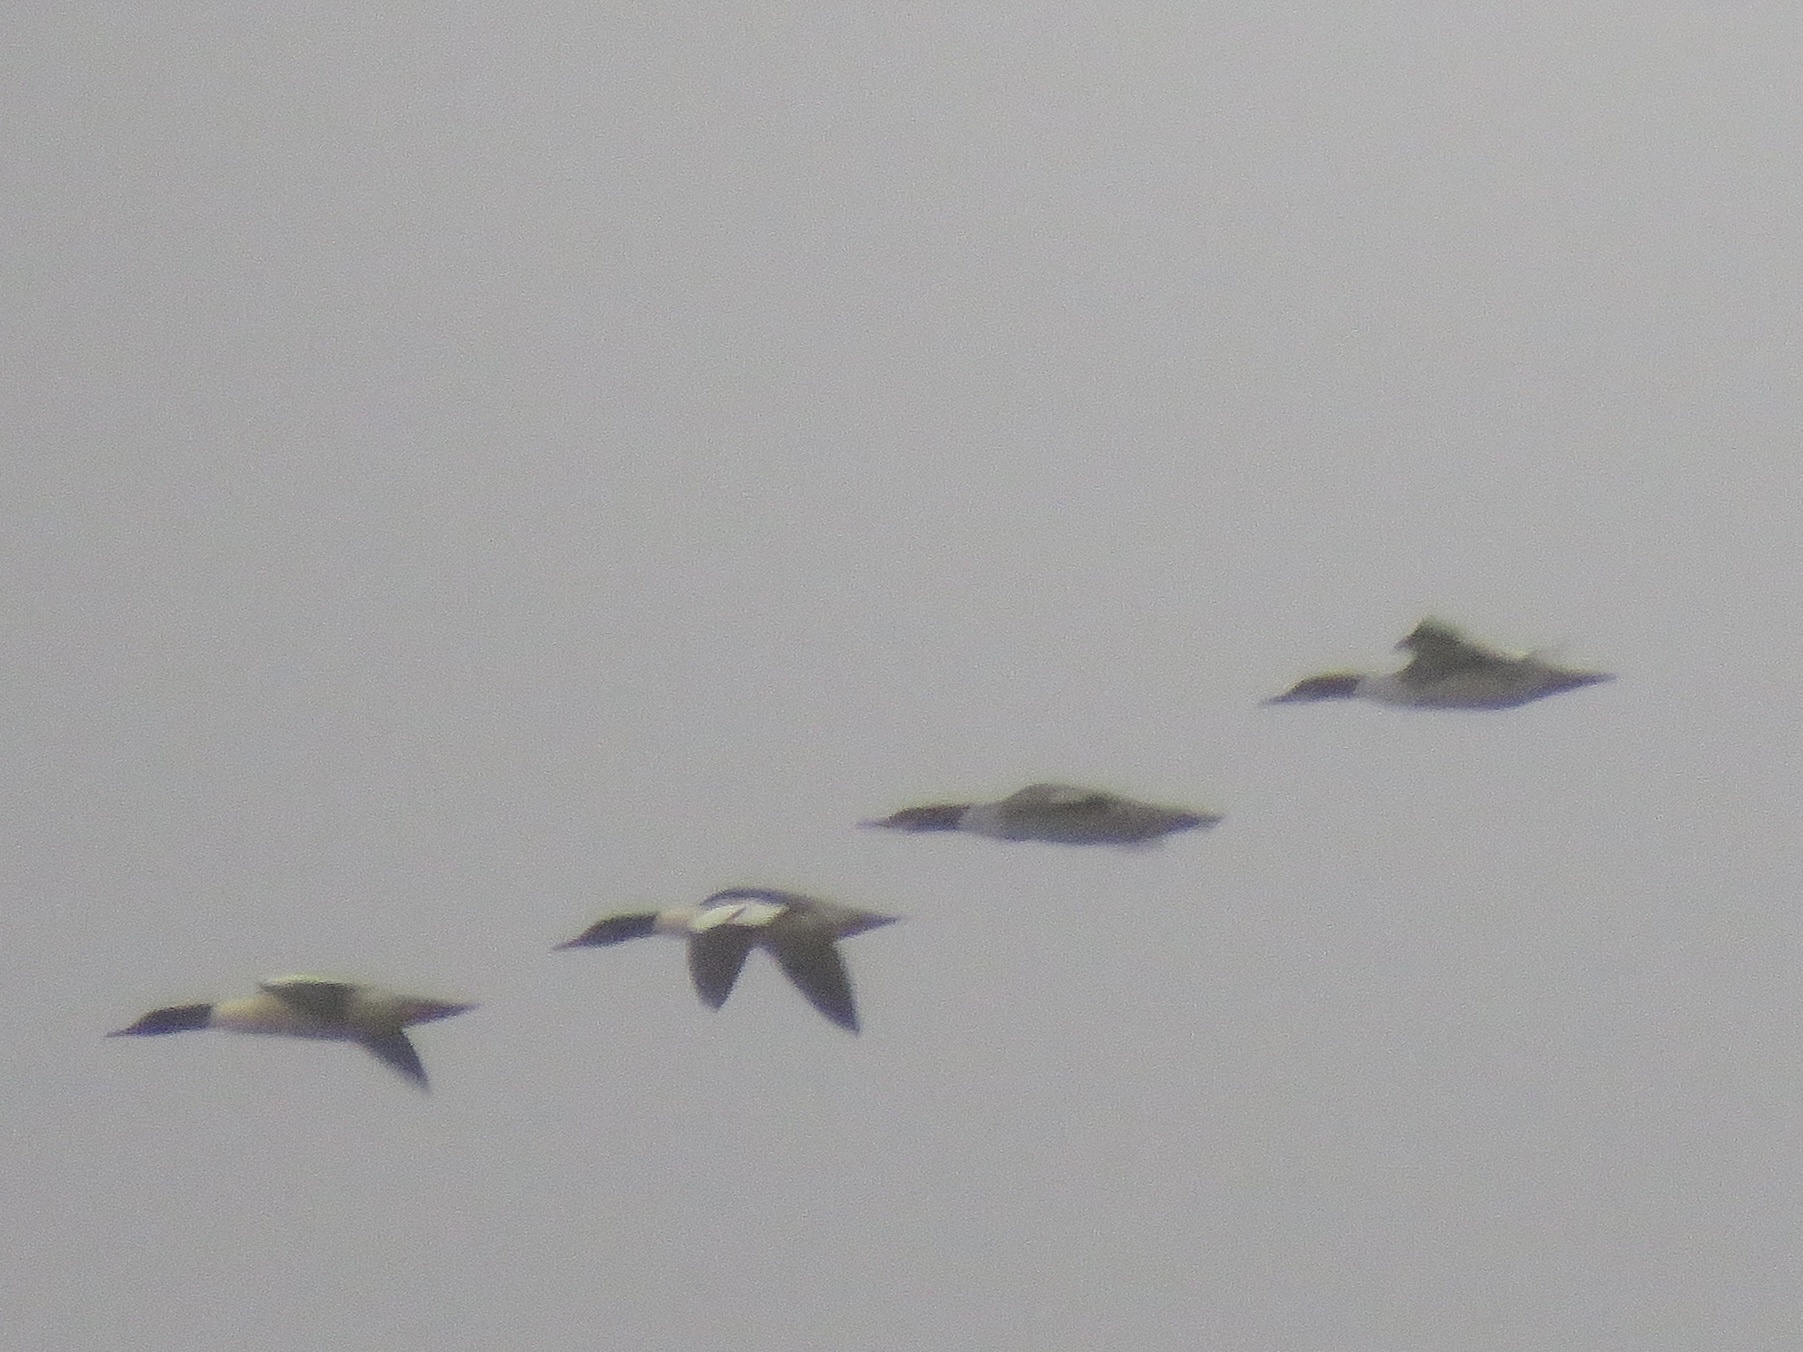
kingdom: Animalia
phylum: Chordata
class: Aves
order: Anseriformes
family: Anatidae
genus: Mergus
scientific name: Mergus merganser
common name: Common merganser
